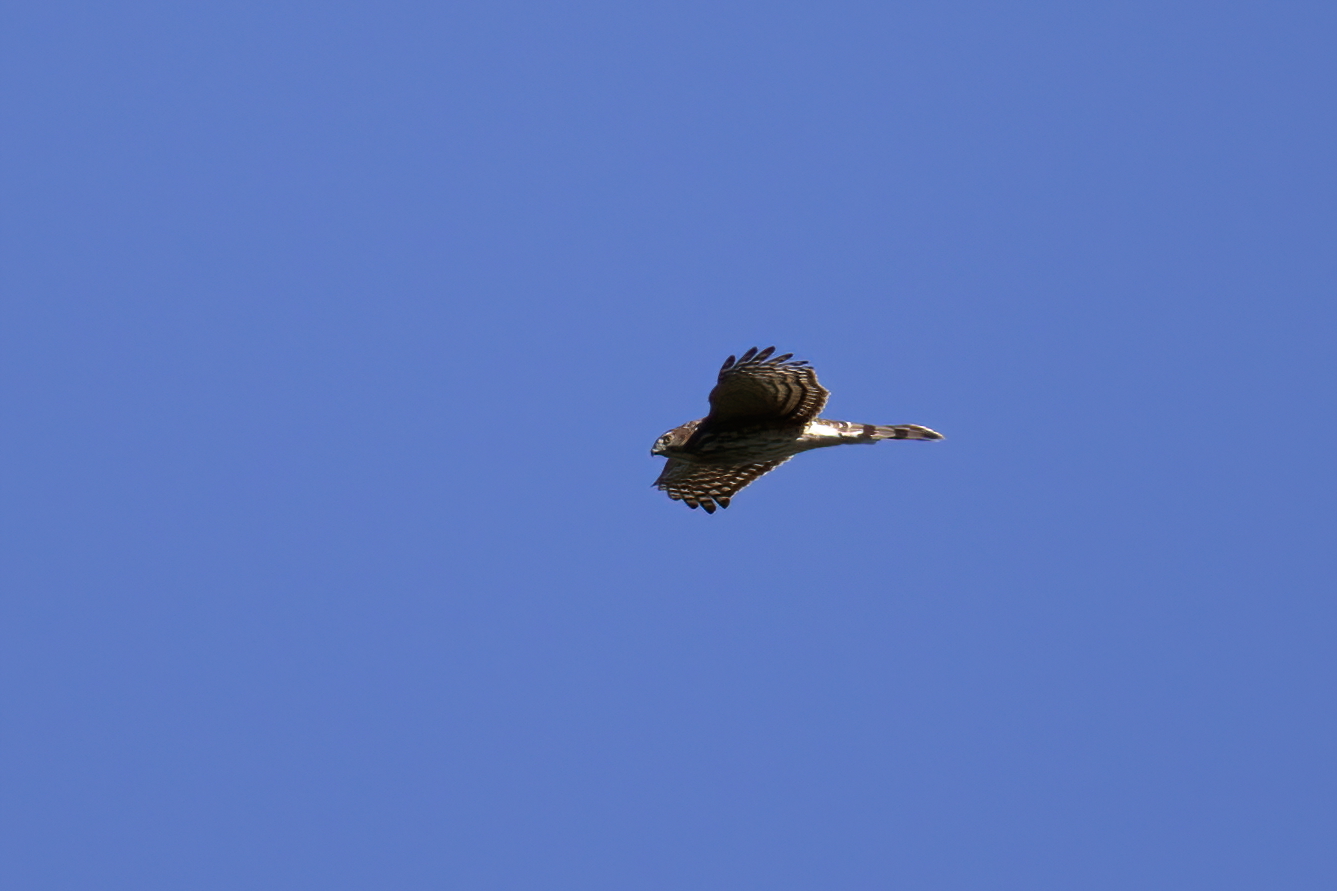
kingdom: Animalia
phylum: Chordata
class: Aves
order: Accipitriformes
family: Accipitridae
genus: Accipiter
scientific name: Accipiter cooperii
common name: Cooper's hawk
